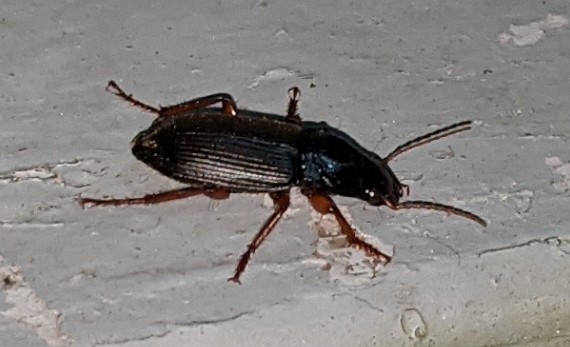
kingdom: Animalia
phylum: Arthropoda
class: Insecta
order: Coleoptera
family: Carabidae
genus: Harpalus
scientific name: Harpalus rufipes
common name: Strawberry harp ground beetle
